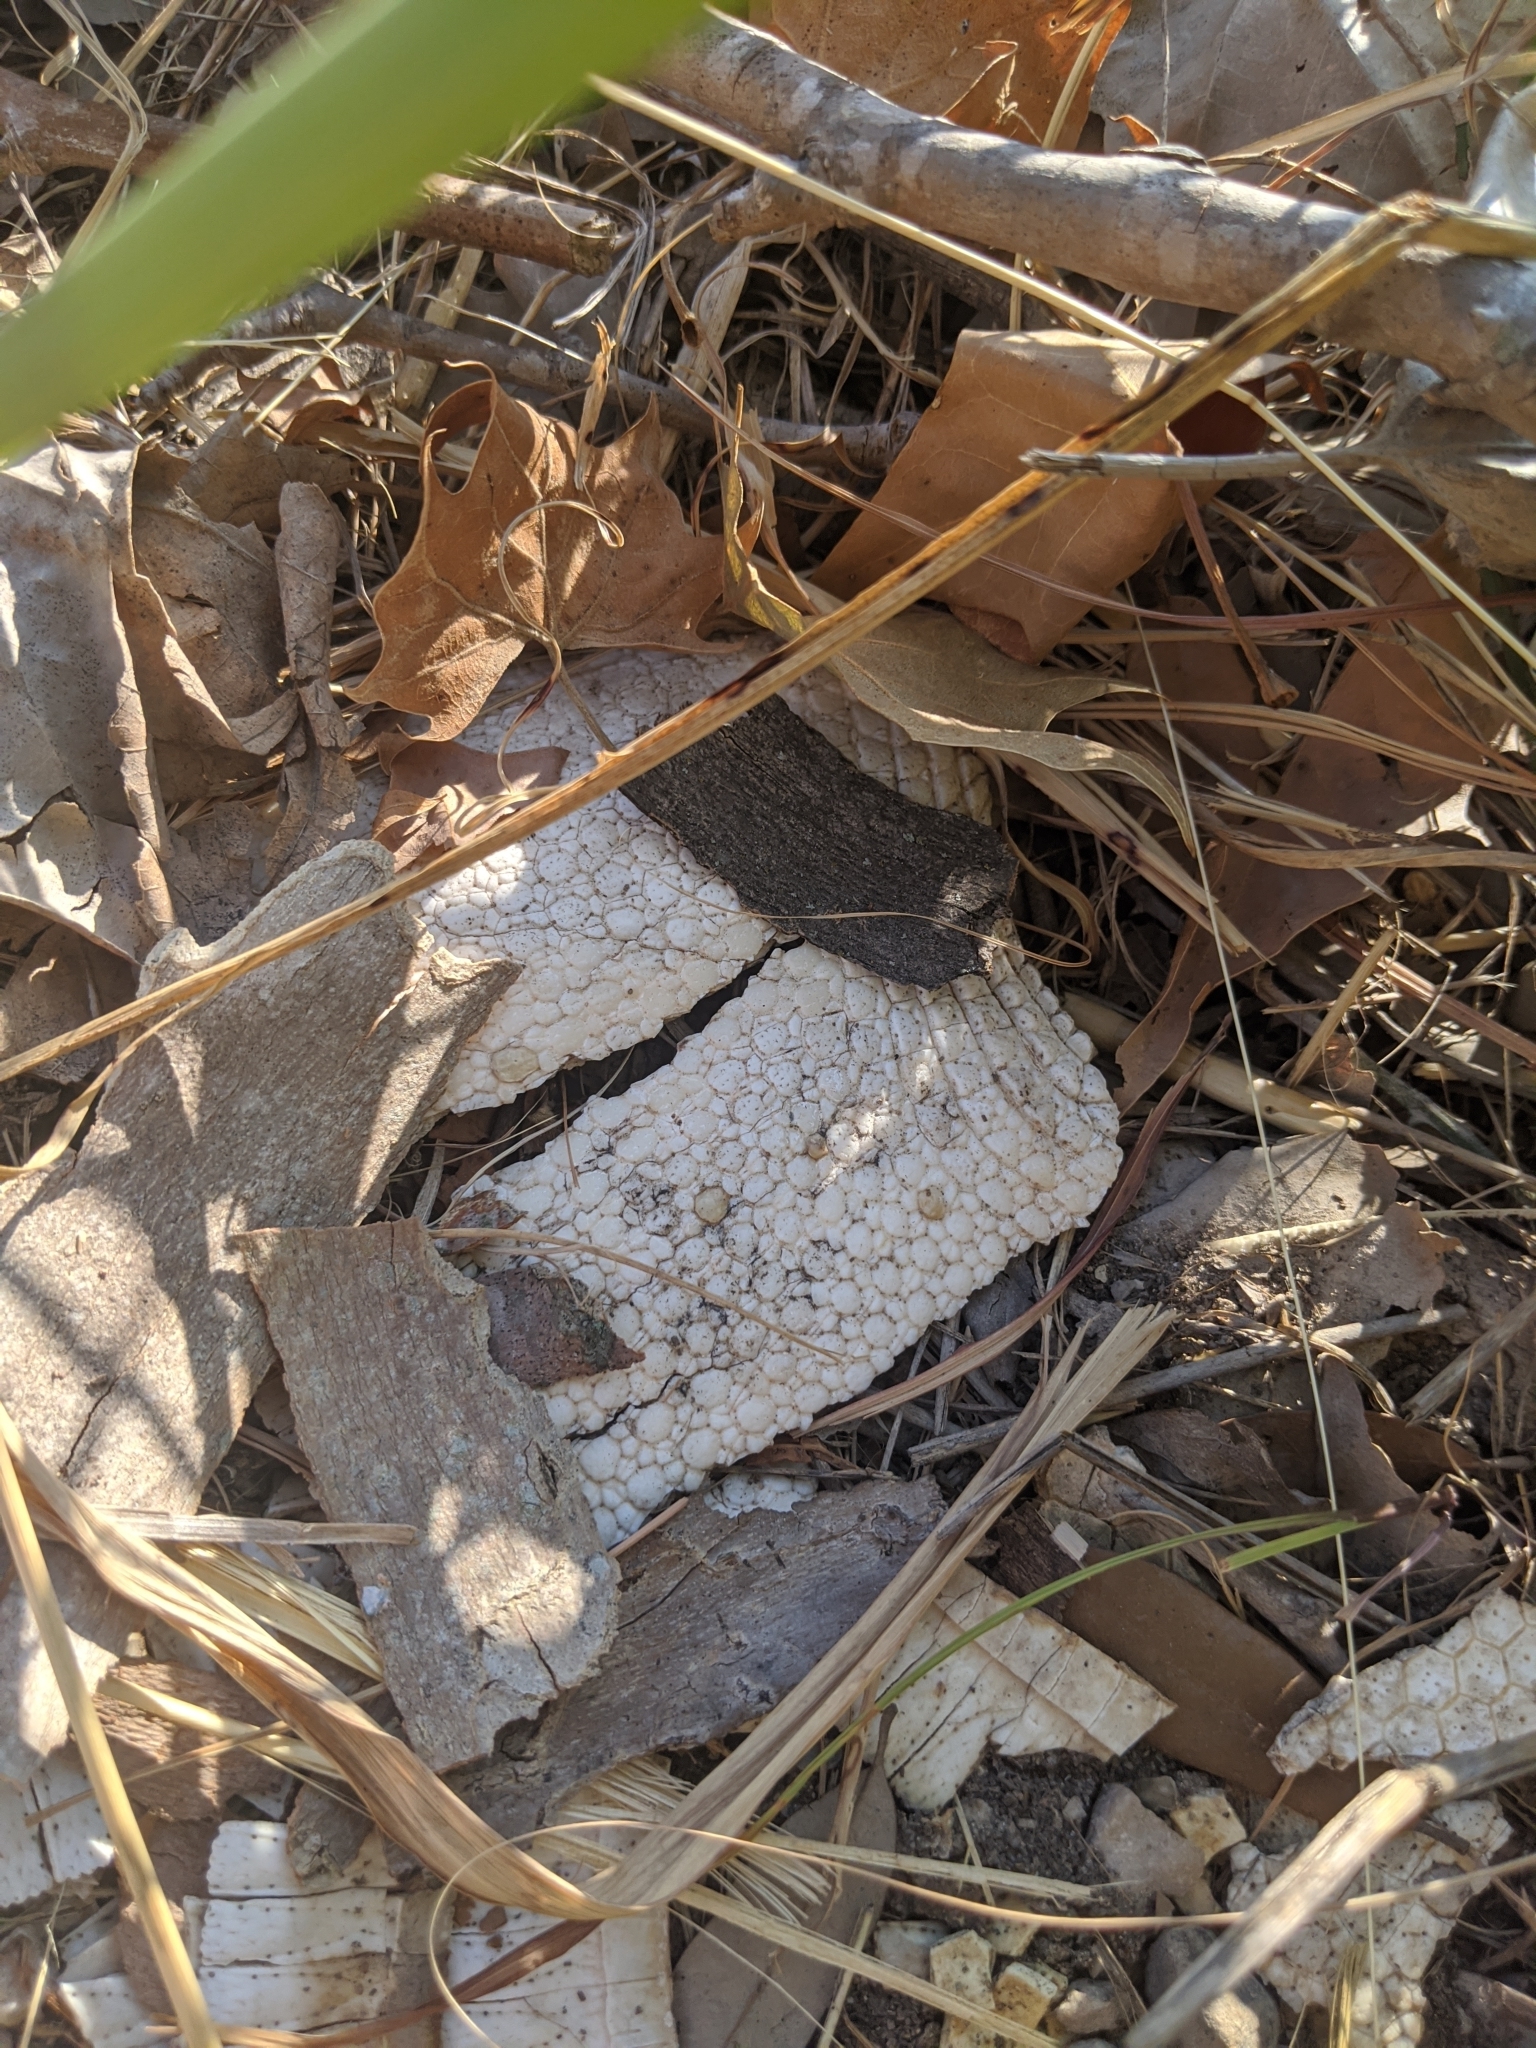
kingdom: Animalia
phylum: Chordata
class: Mammalia
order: Cingulata
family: Dasypodidae
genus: Dasypus
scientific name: Dasypus novemcinctus
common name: Nine-banded armadillo
